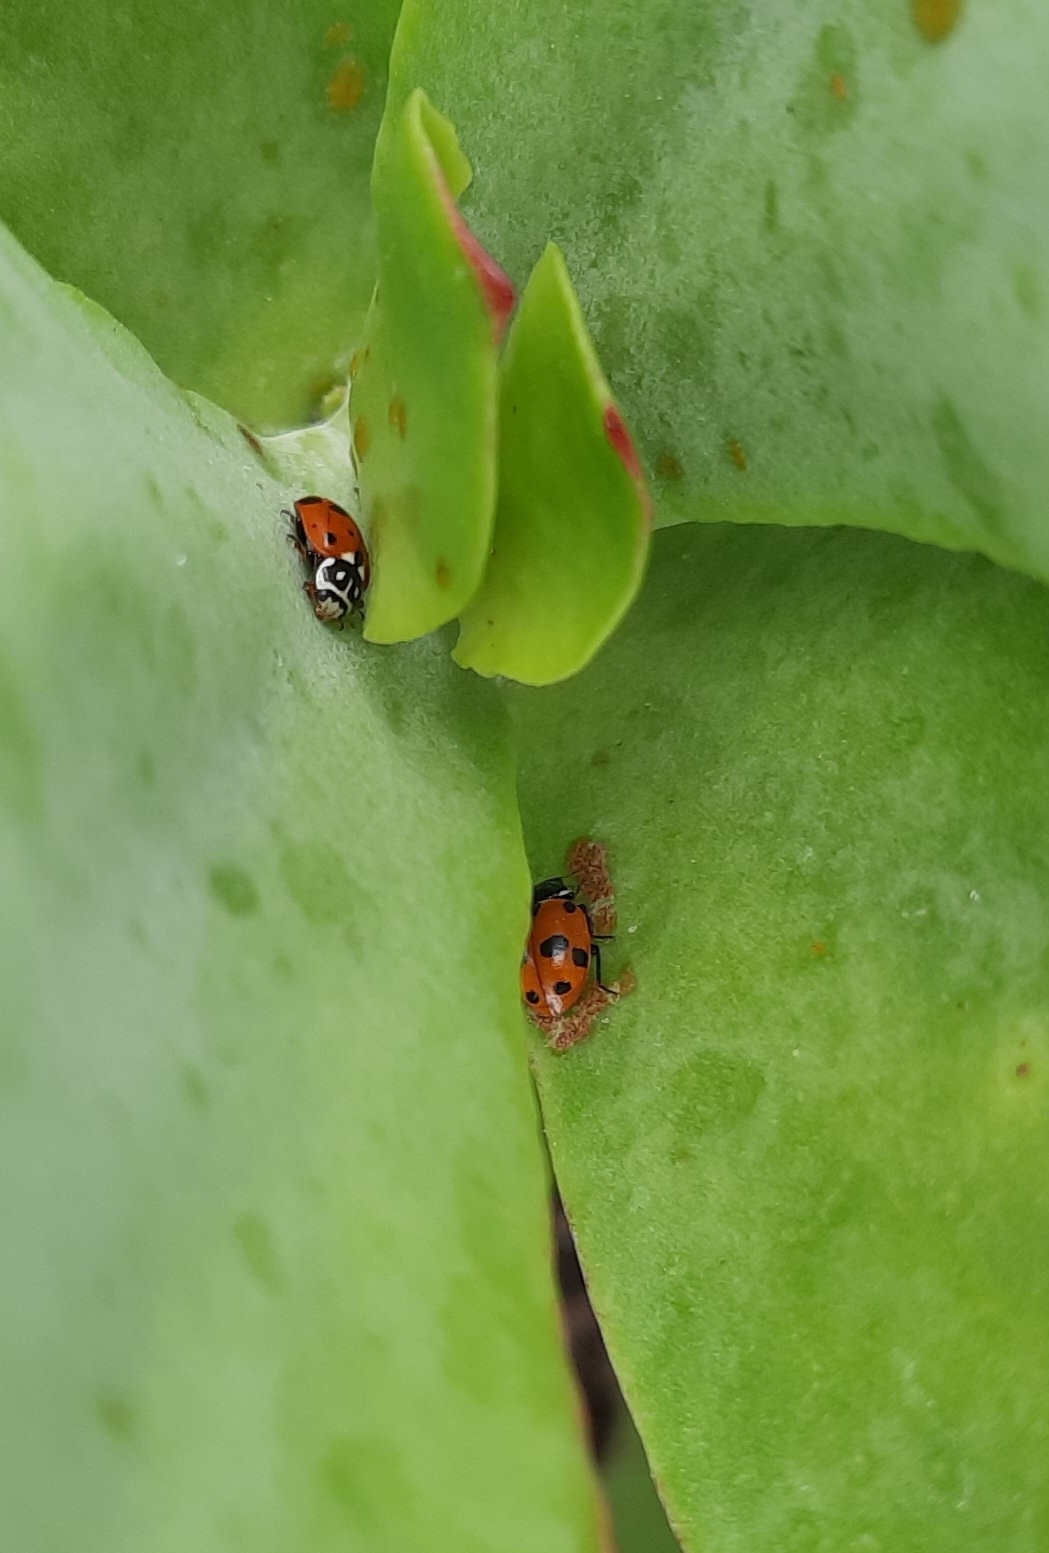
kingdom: Animalia
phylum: Arthropoda
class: Insecta
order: Coleoptera
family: Coccinellidae
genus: Hippodamia
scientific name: Hippodamia variegata
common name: Ladybird beetle
